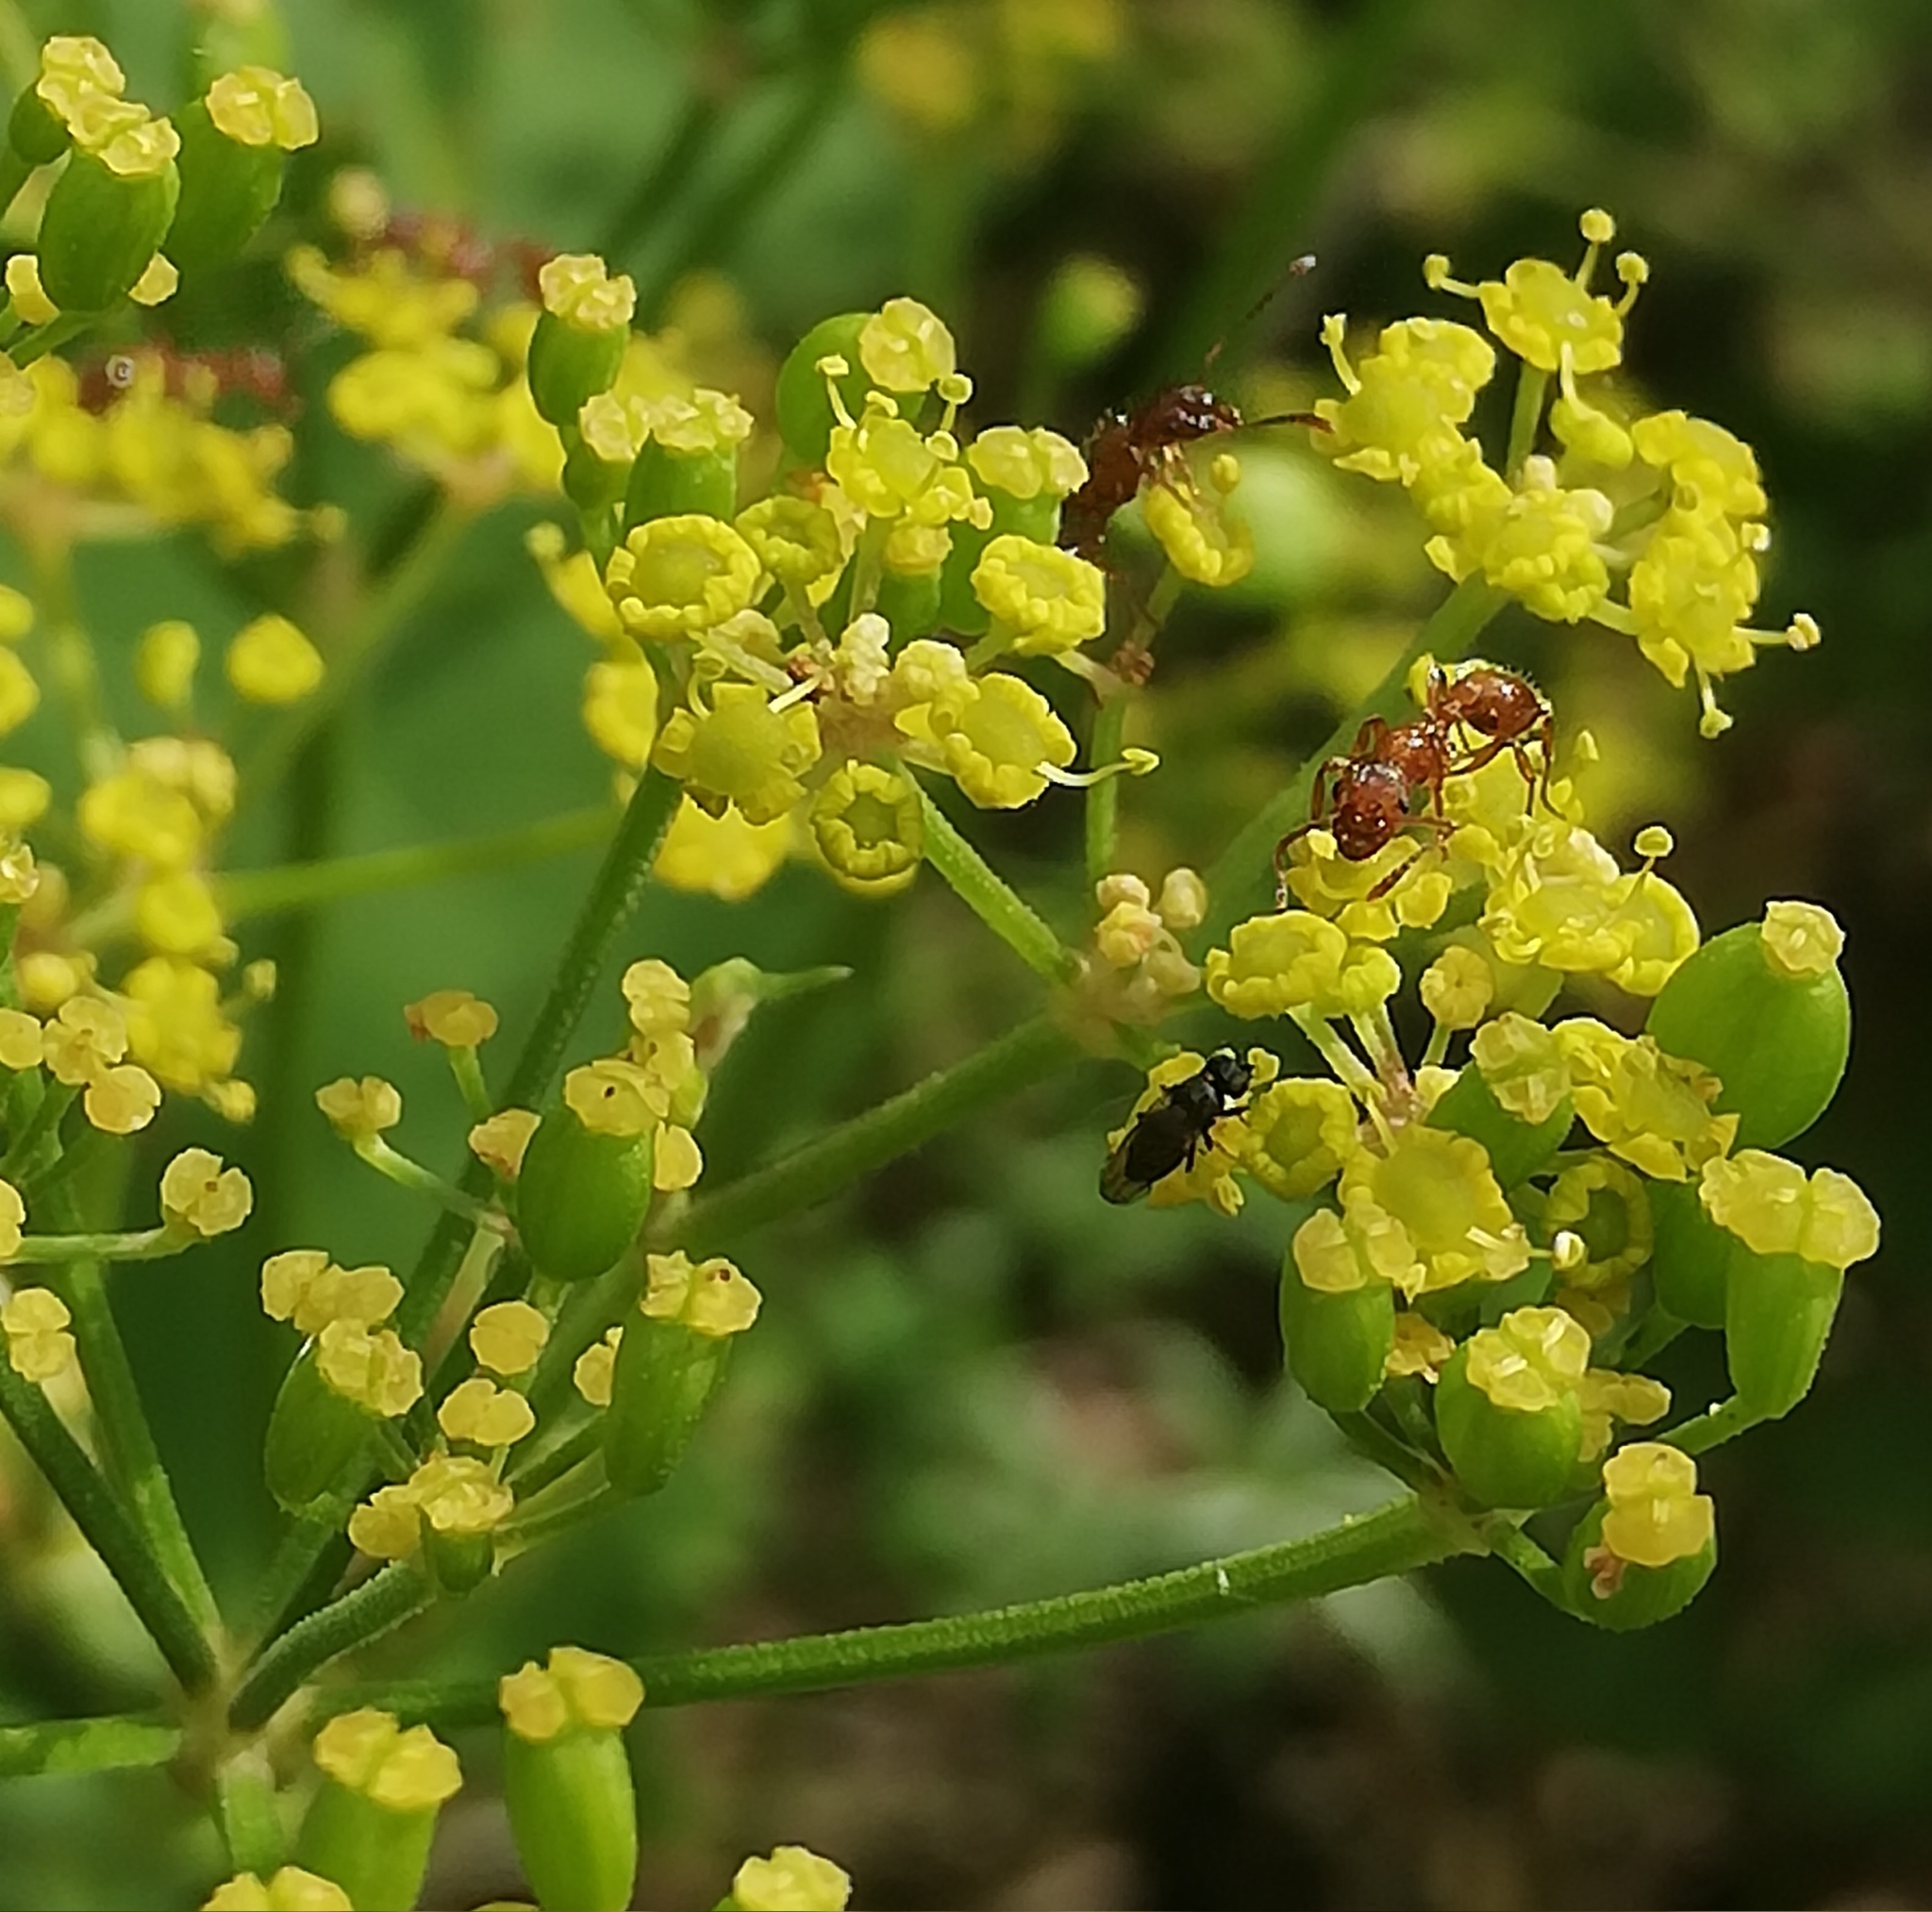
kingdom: Plantae
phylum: Tracheophyta
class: Magnoliopsida
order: Apiales
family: Apiaceae
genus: Pastinaca
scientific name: Pastinaca sativa
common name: Wild parsnip
